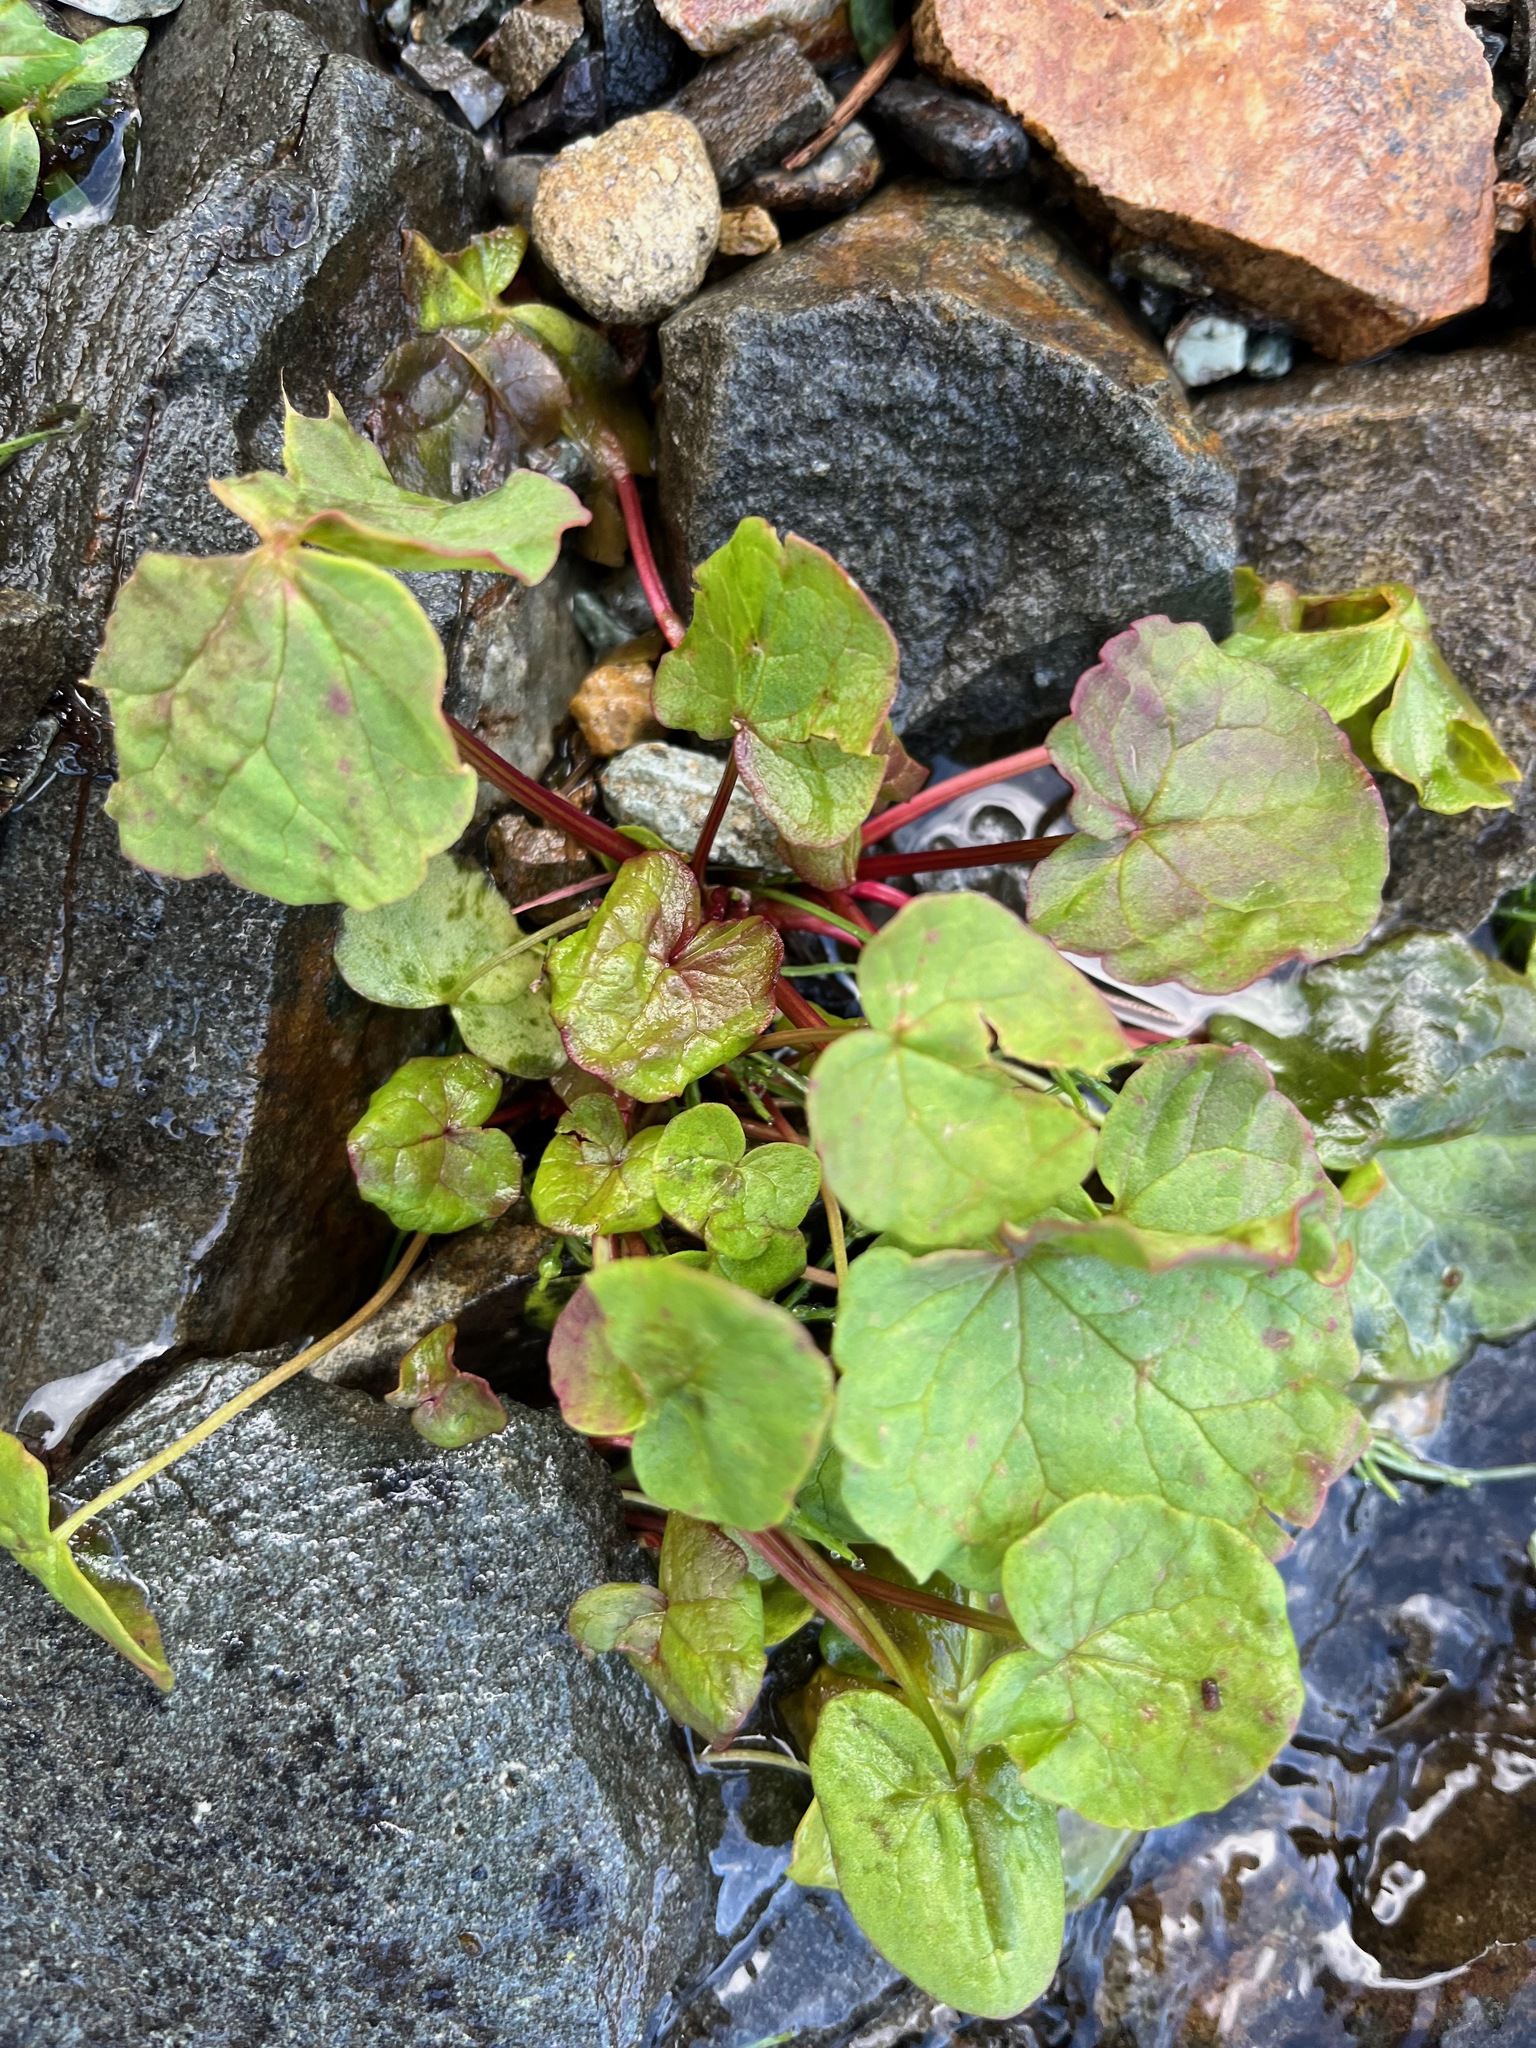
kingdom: Plantae
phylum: Tracheophyta
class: Magnoliopsida
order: Caryophyllales
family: Polygonaceae
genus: Oxyria
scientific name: Oxyria digyna
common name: Alpine mountain-sorrel
